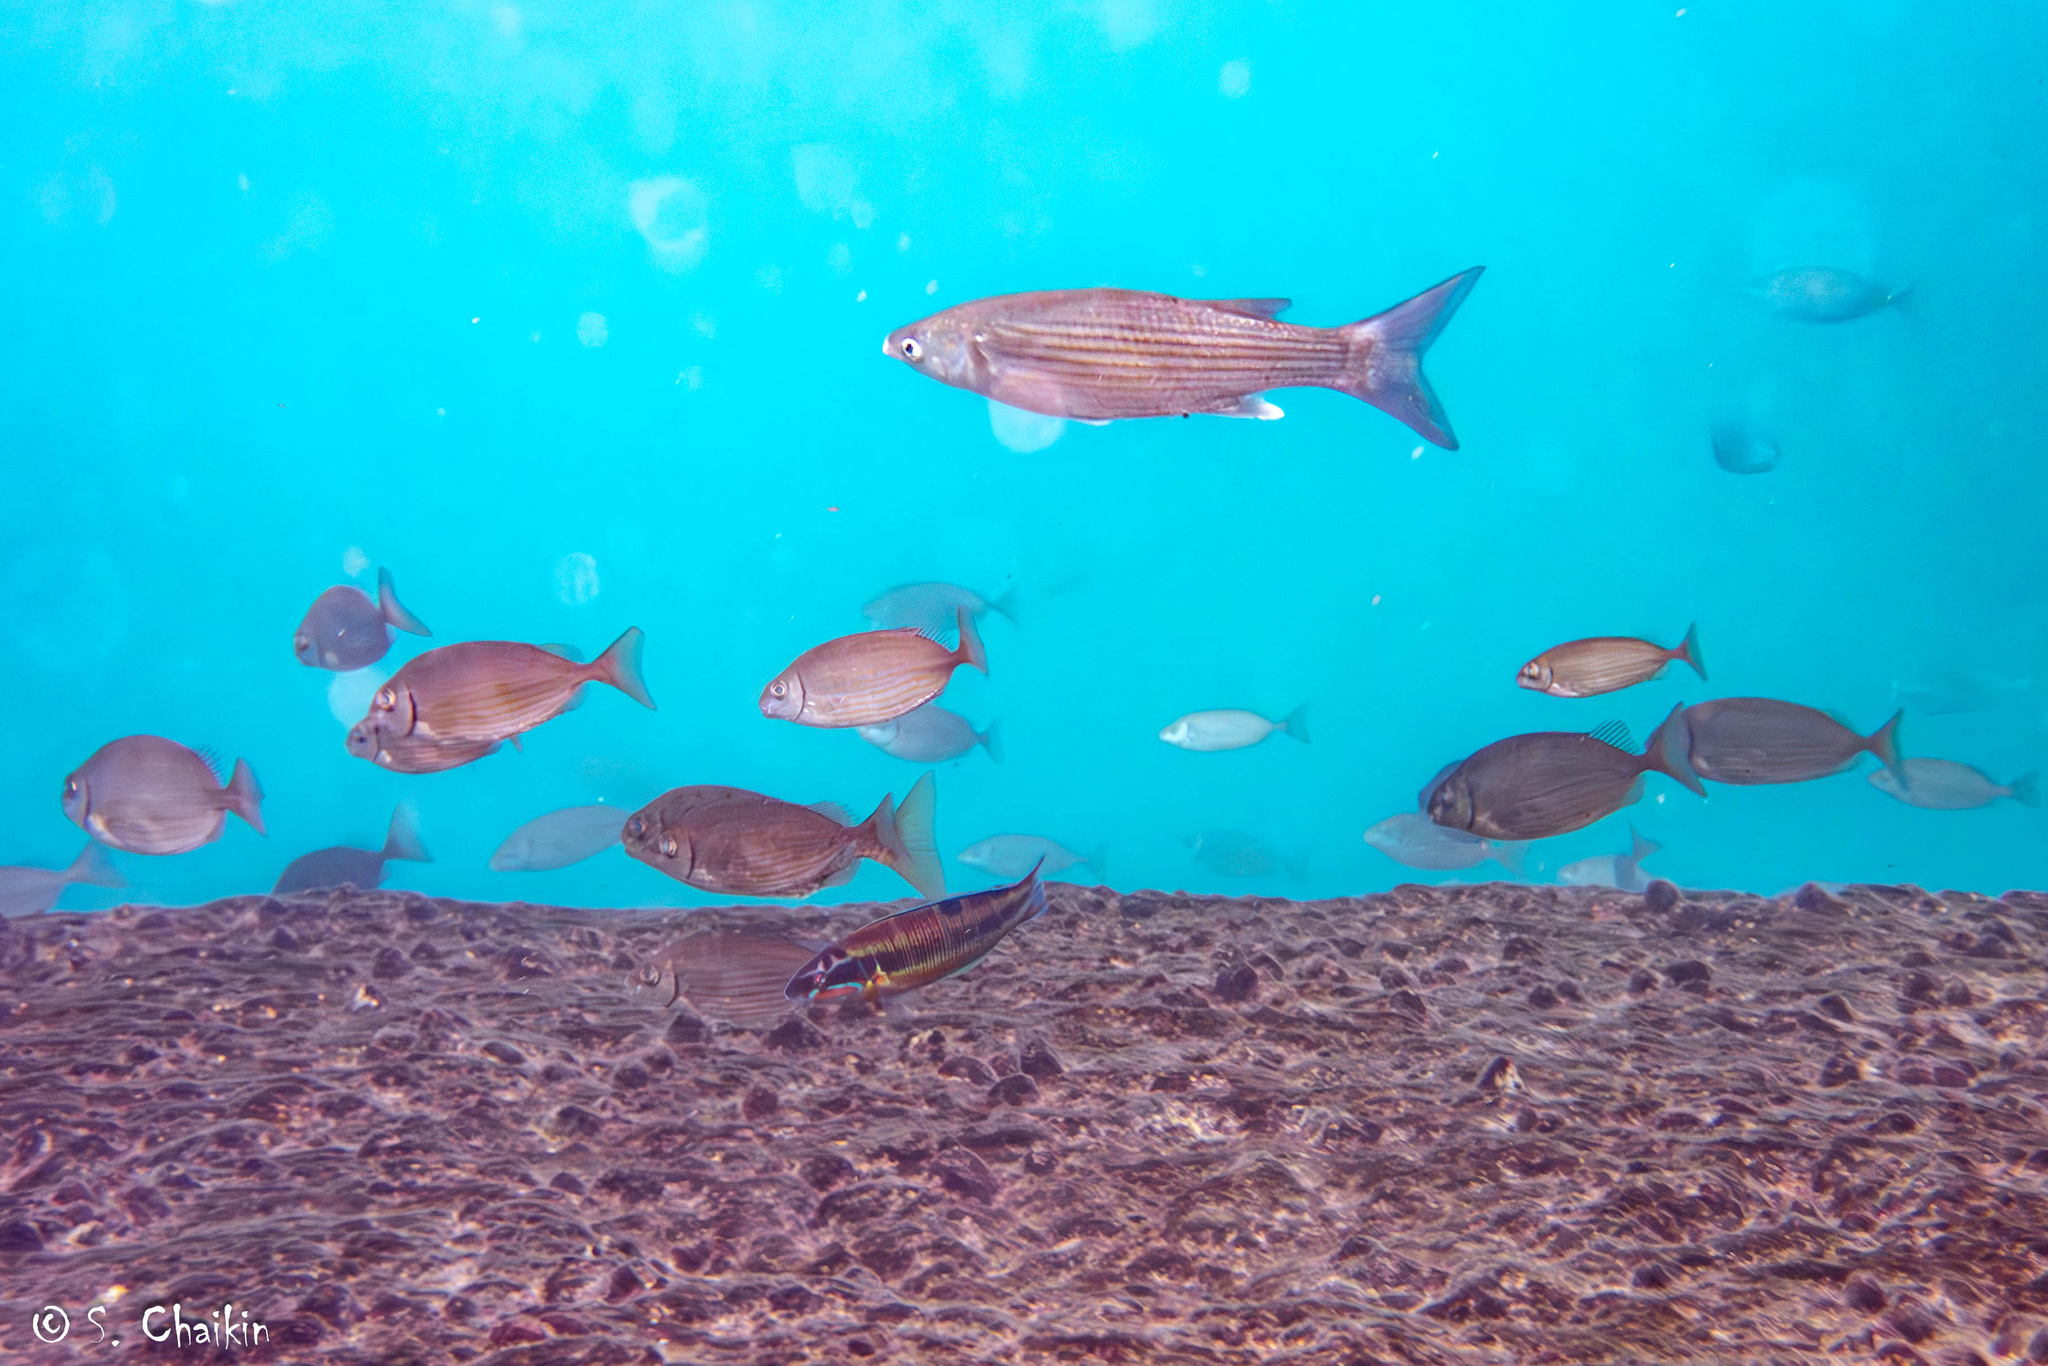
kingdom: Animalia
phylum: Chordata
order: Perciformes
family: Labridae
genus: Thalassoma
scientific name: Thalassoma pavo
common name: Ornate wrasse
